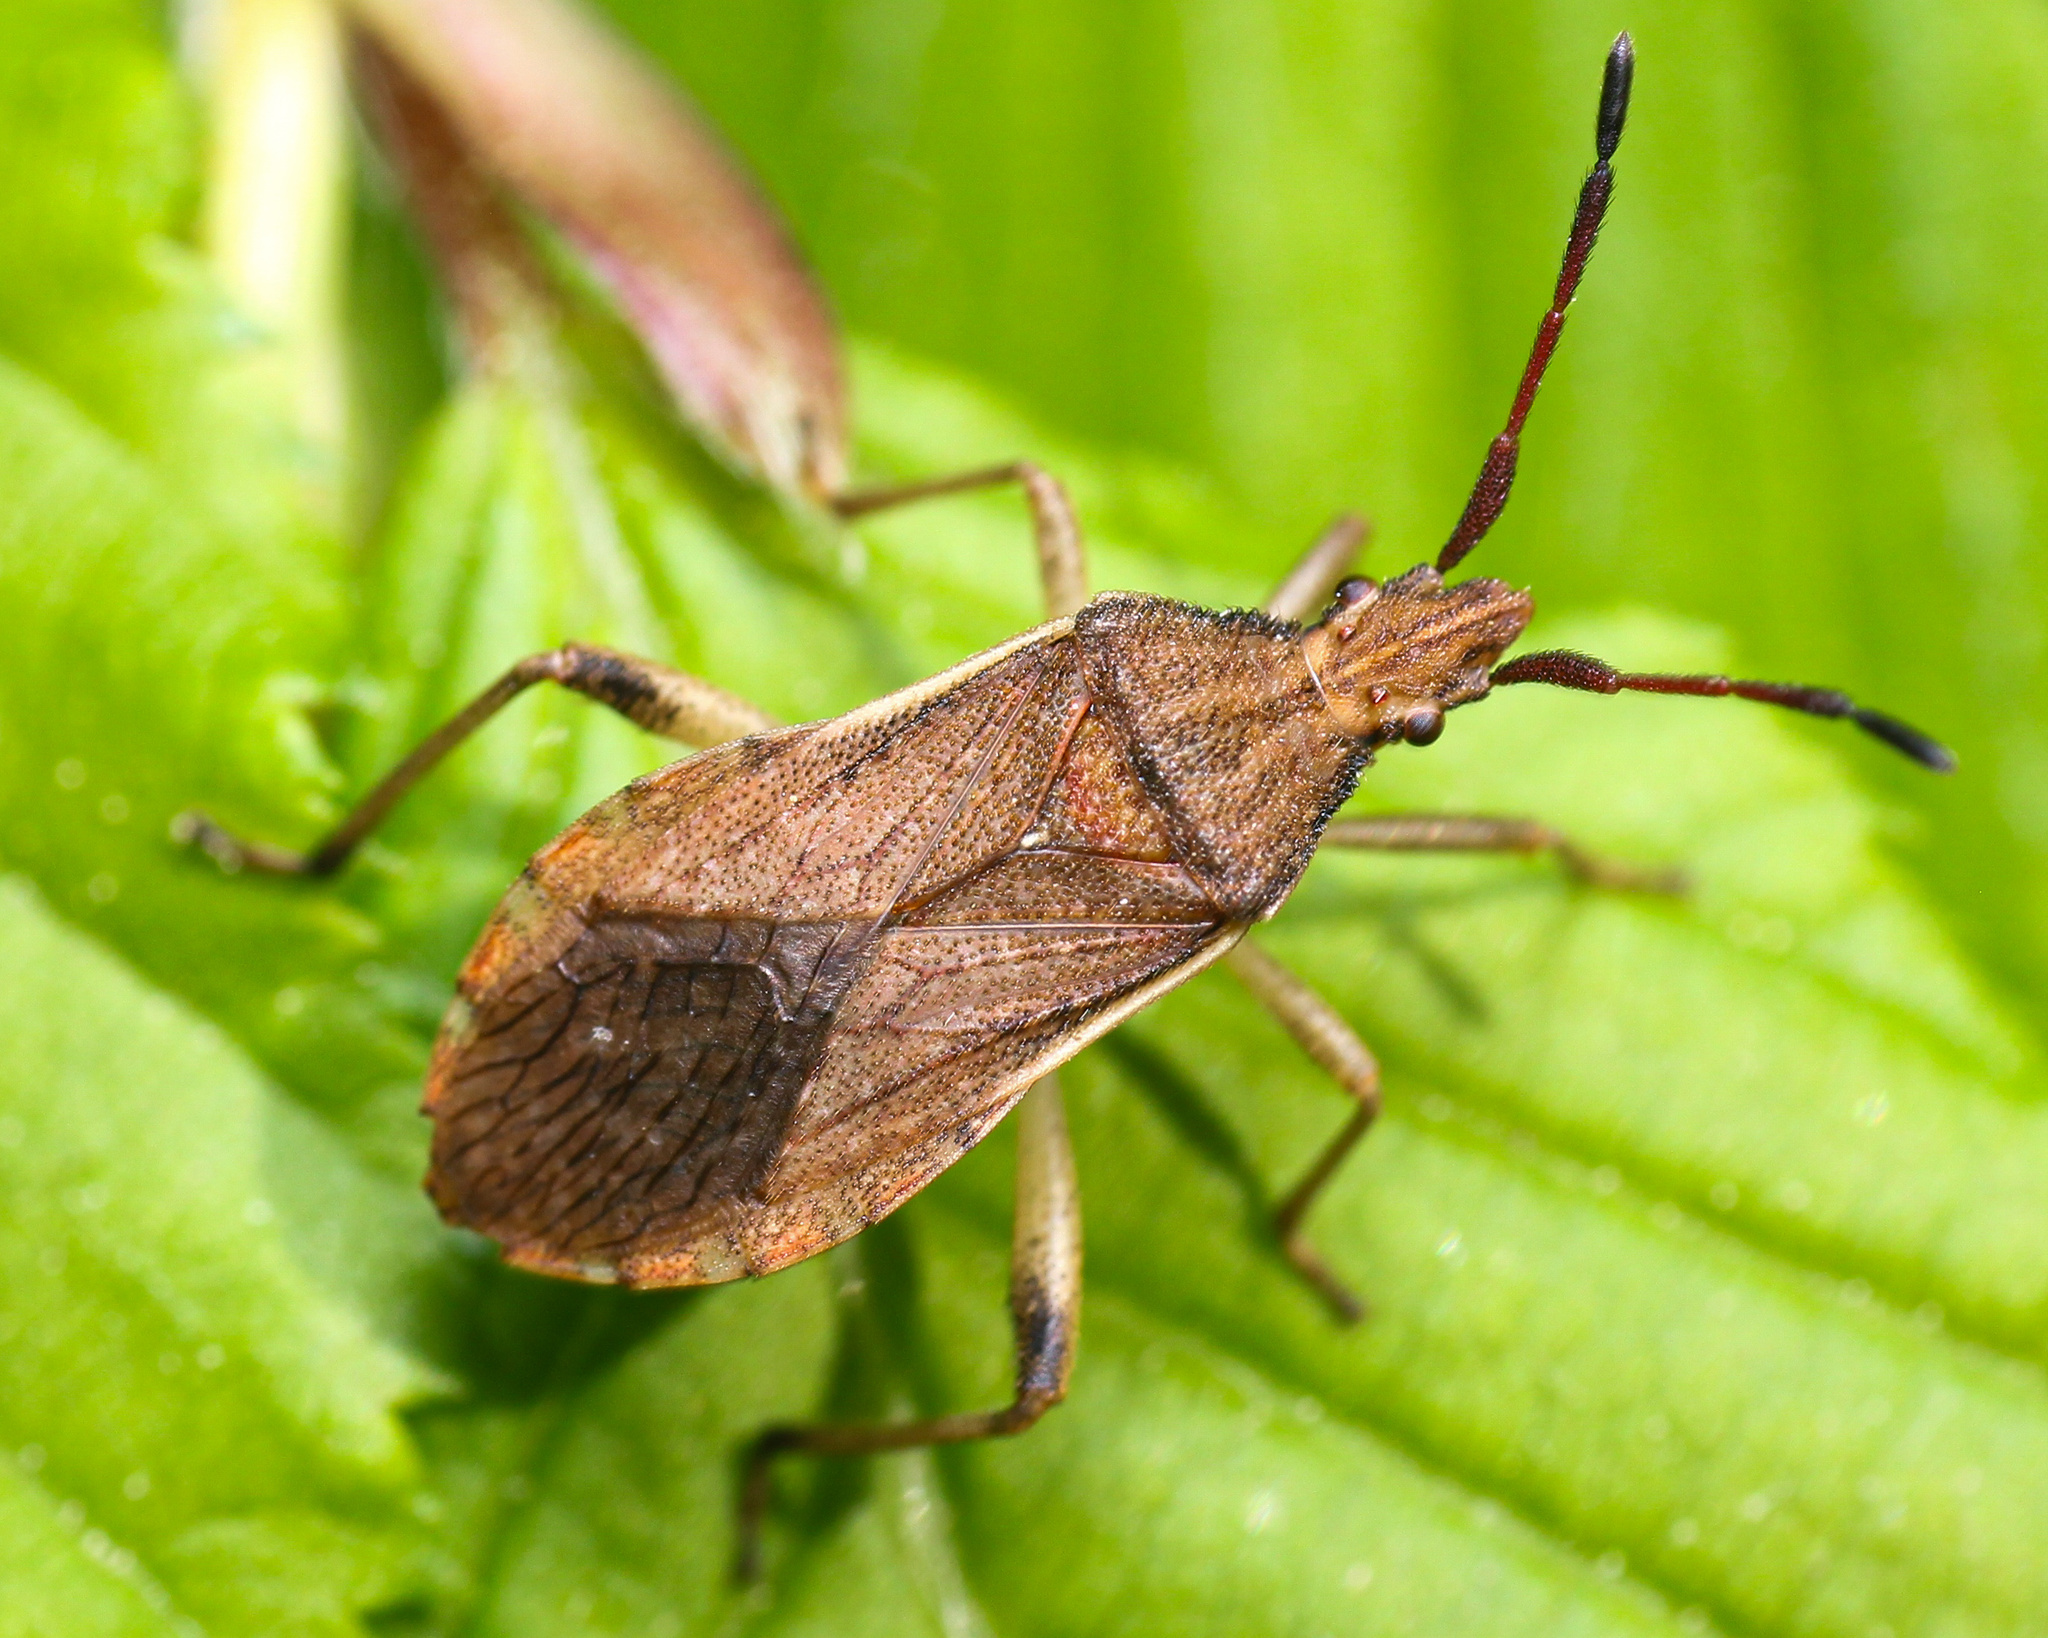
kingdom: Animalia
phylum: Arthropoda
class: Insecta
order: Hemiptera
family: Coreidae
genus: Ceraleptus
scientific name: Ceraleptus lividus
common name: Slender-horned leatherbug
